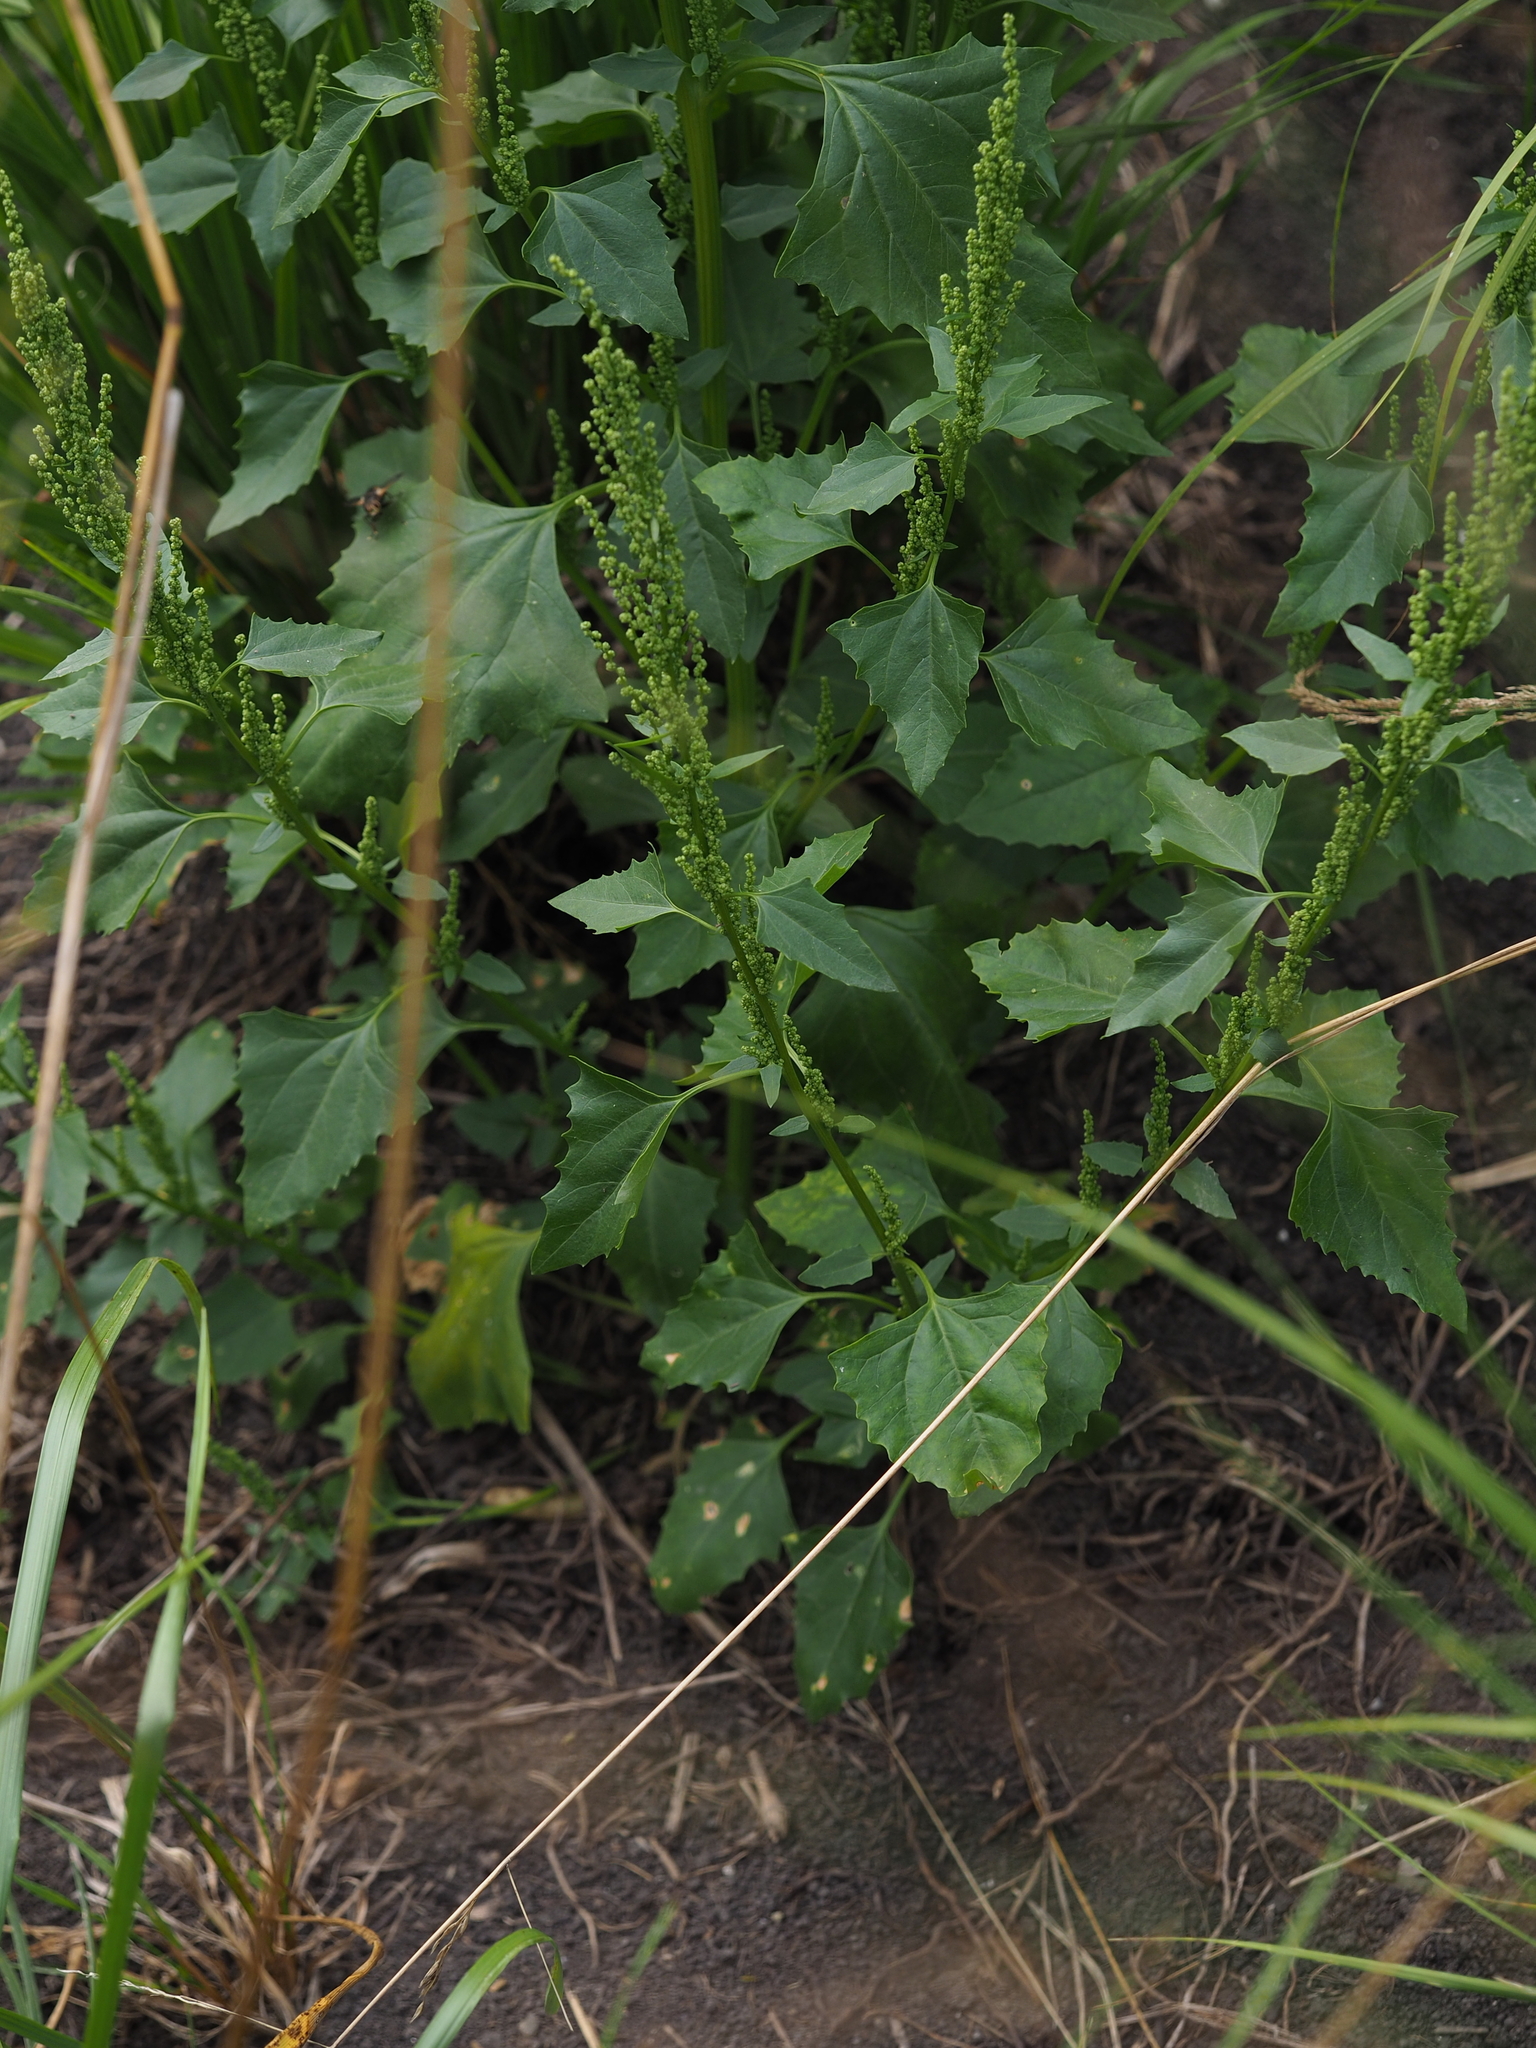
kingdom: Plantae
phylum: Tracheophyta
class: Magnoliopsida
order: Caryophyllales
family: Amaranthaceae
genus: Oxybasis
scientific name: Oxybasis urbica
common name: City goosefoot
